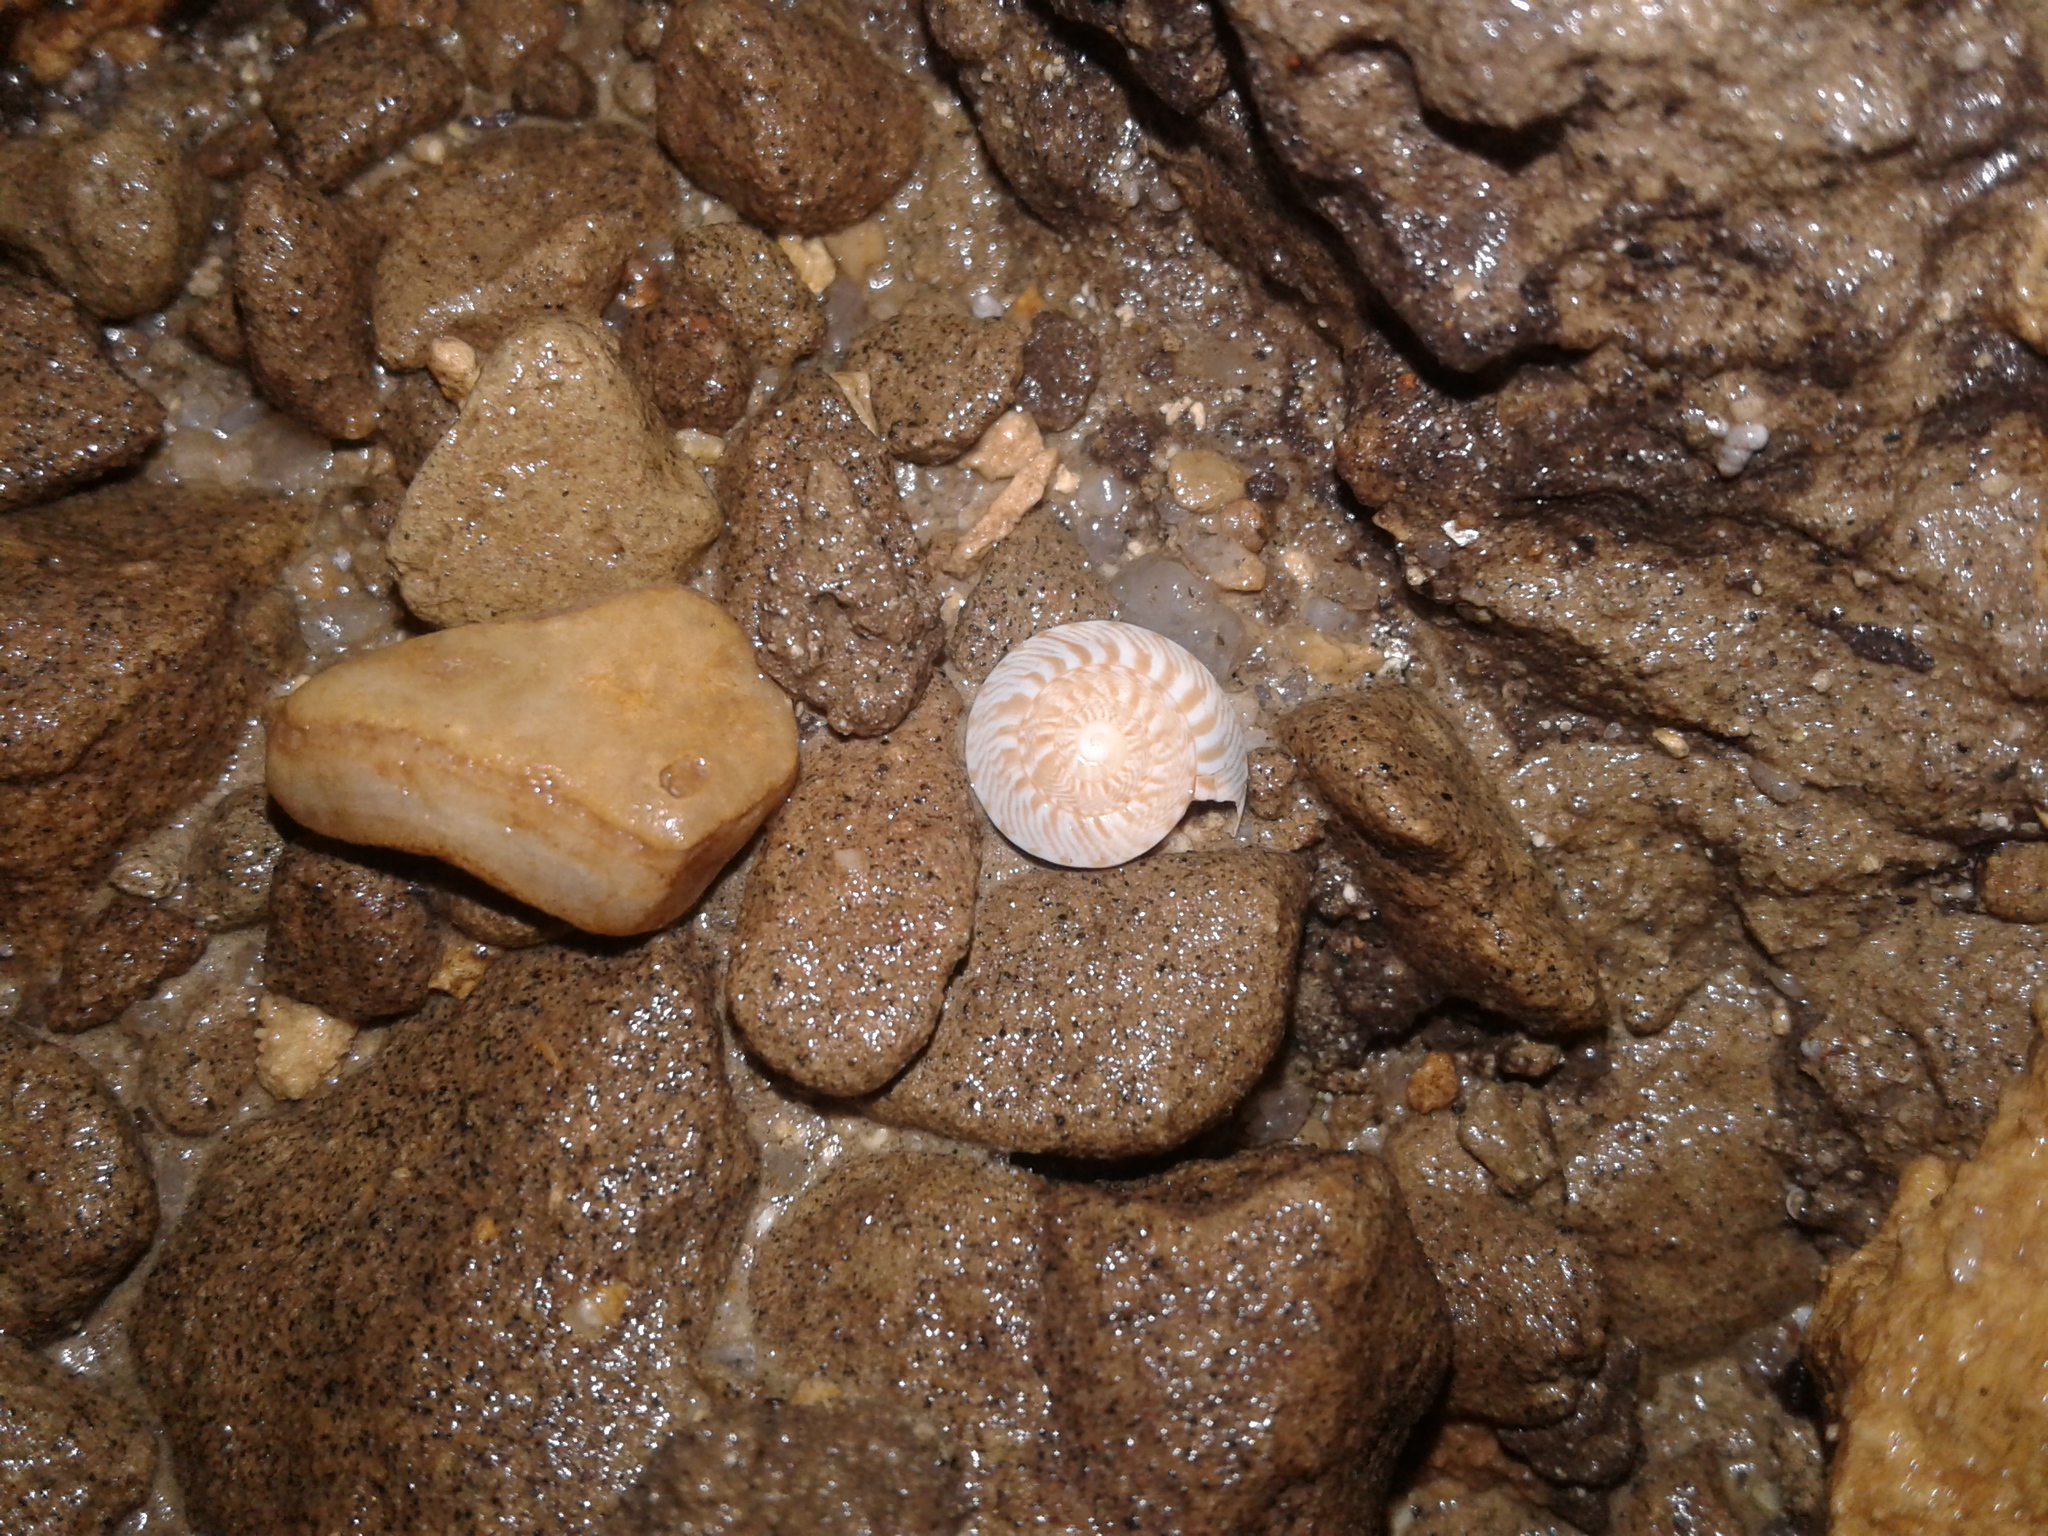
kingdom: Animalia
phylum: Mollusca
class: Gastropoda
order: Stylommatophora
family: Charopidae
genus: Therasia
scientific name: Therasia traversi
